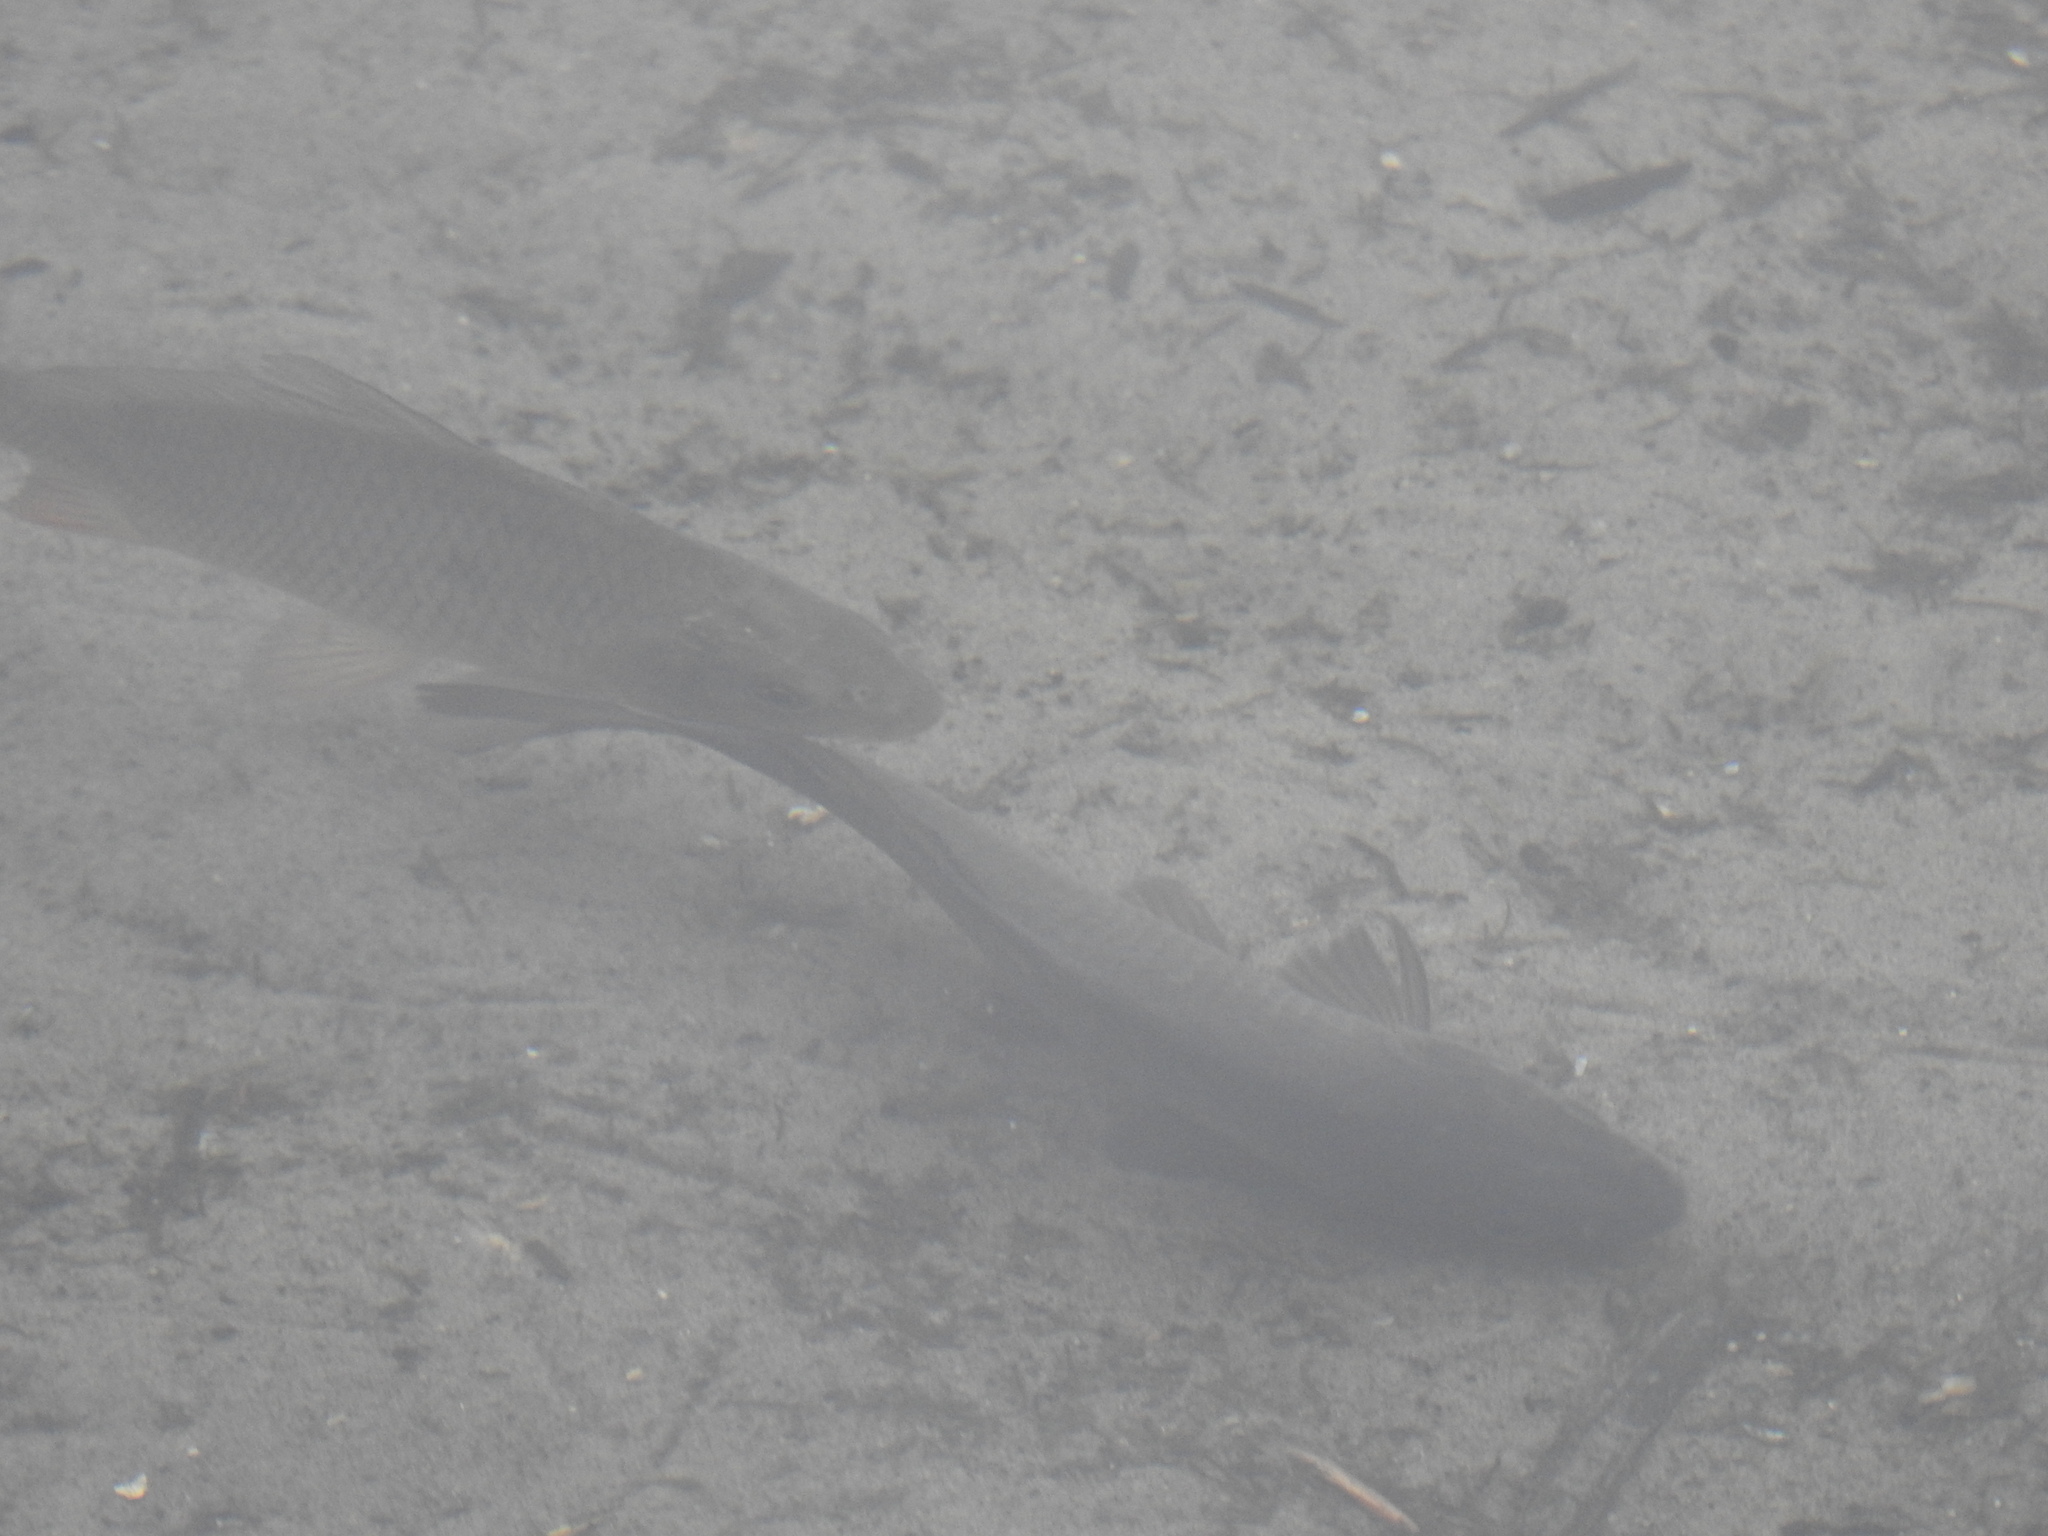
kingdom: Animalia
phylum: Chordata
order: Cypriniformes
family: Cyprinidae
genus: Cyprinus
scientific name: Cyprinus carpio
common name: Common carp
